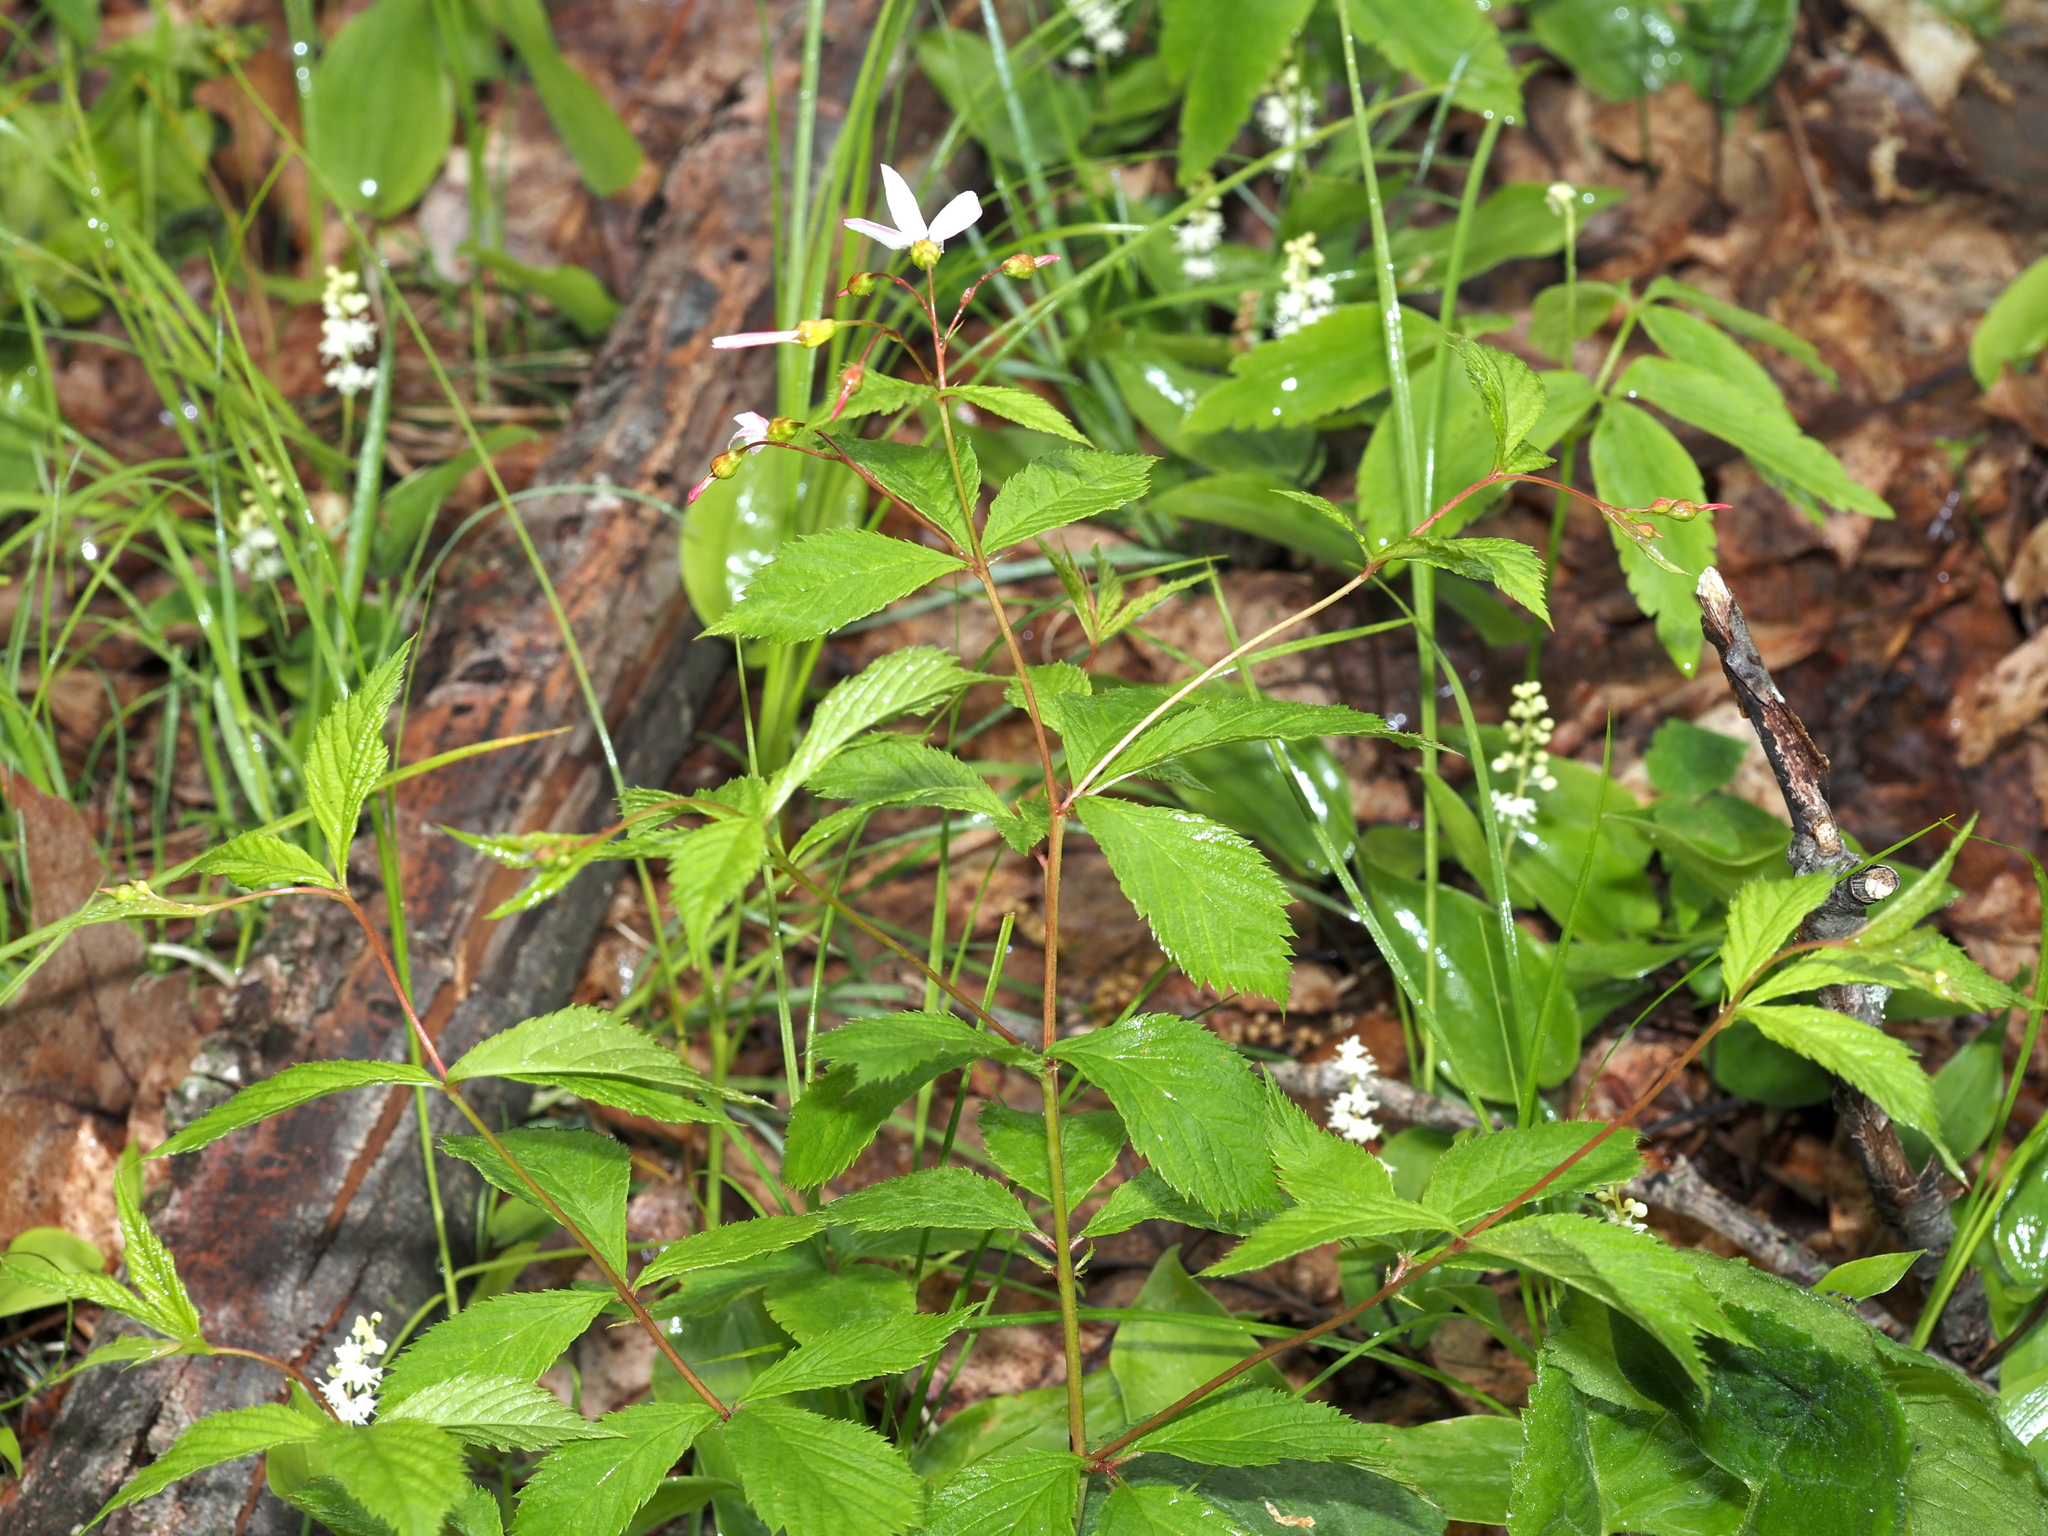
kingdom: Plantae
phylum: Tracheophyta
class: Magnoliopsida
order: Rosales
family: Rosaceae
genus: Gillenia
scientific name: Gillenia trifoliata
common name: Bowman's-root
